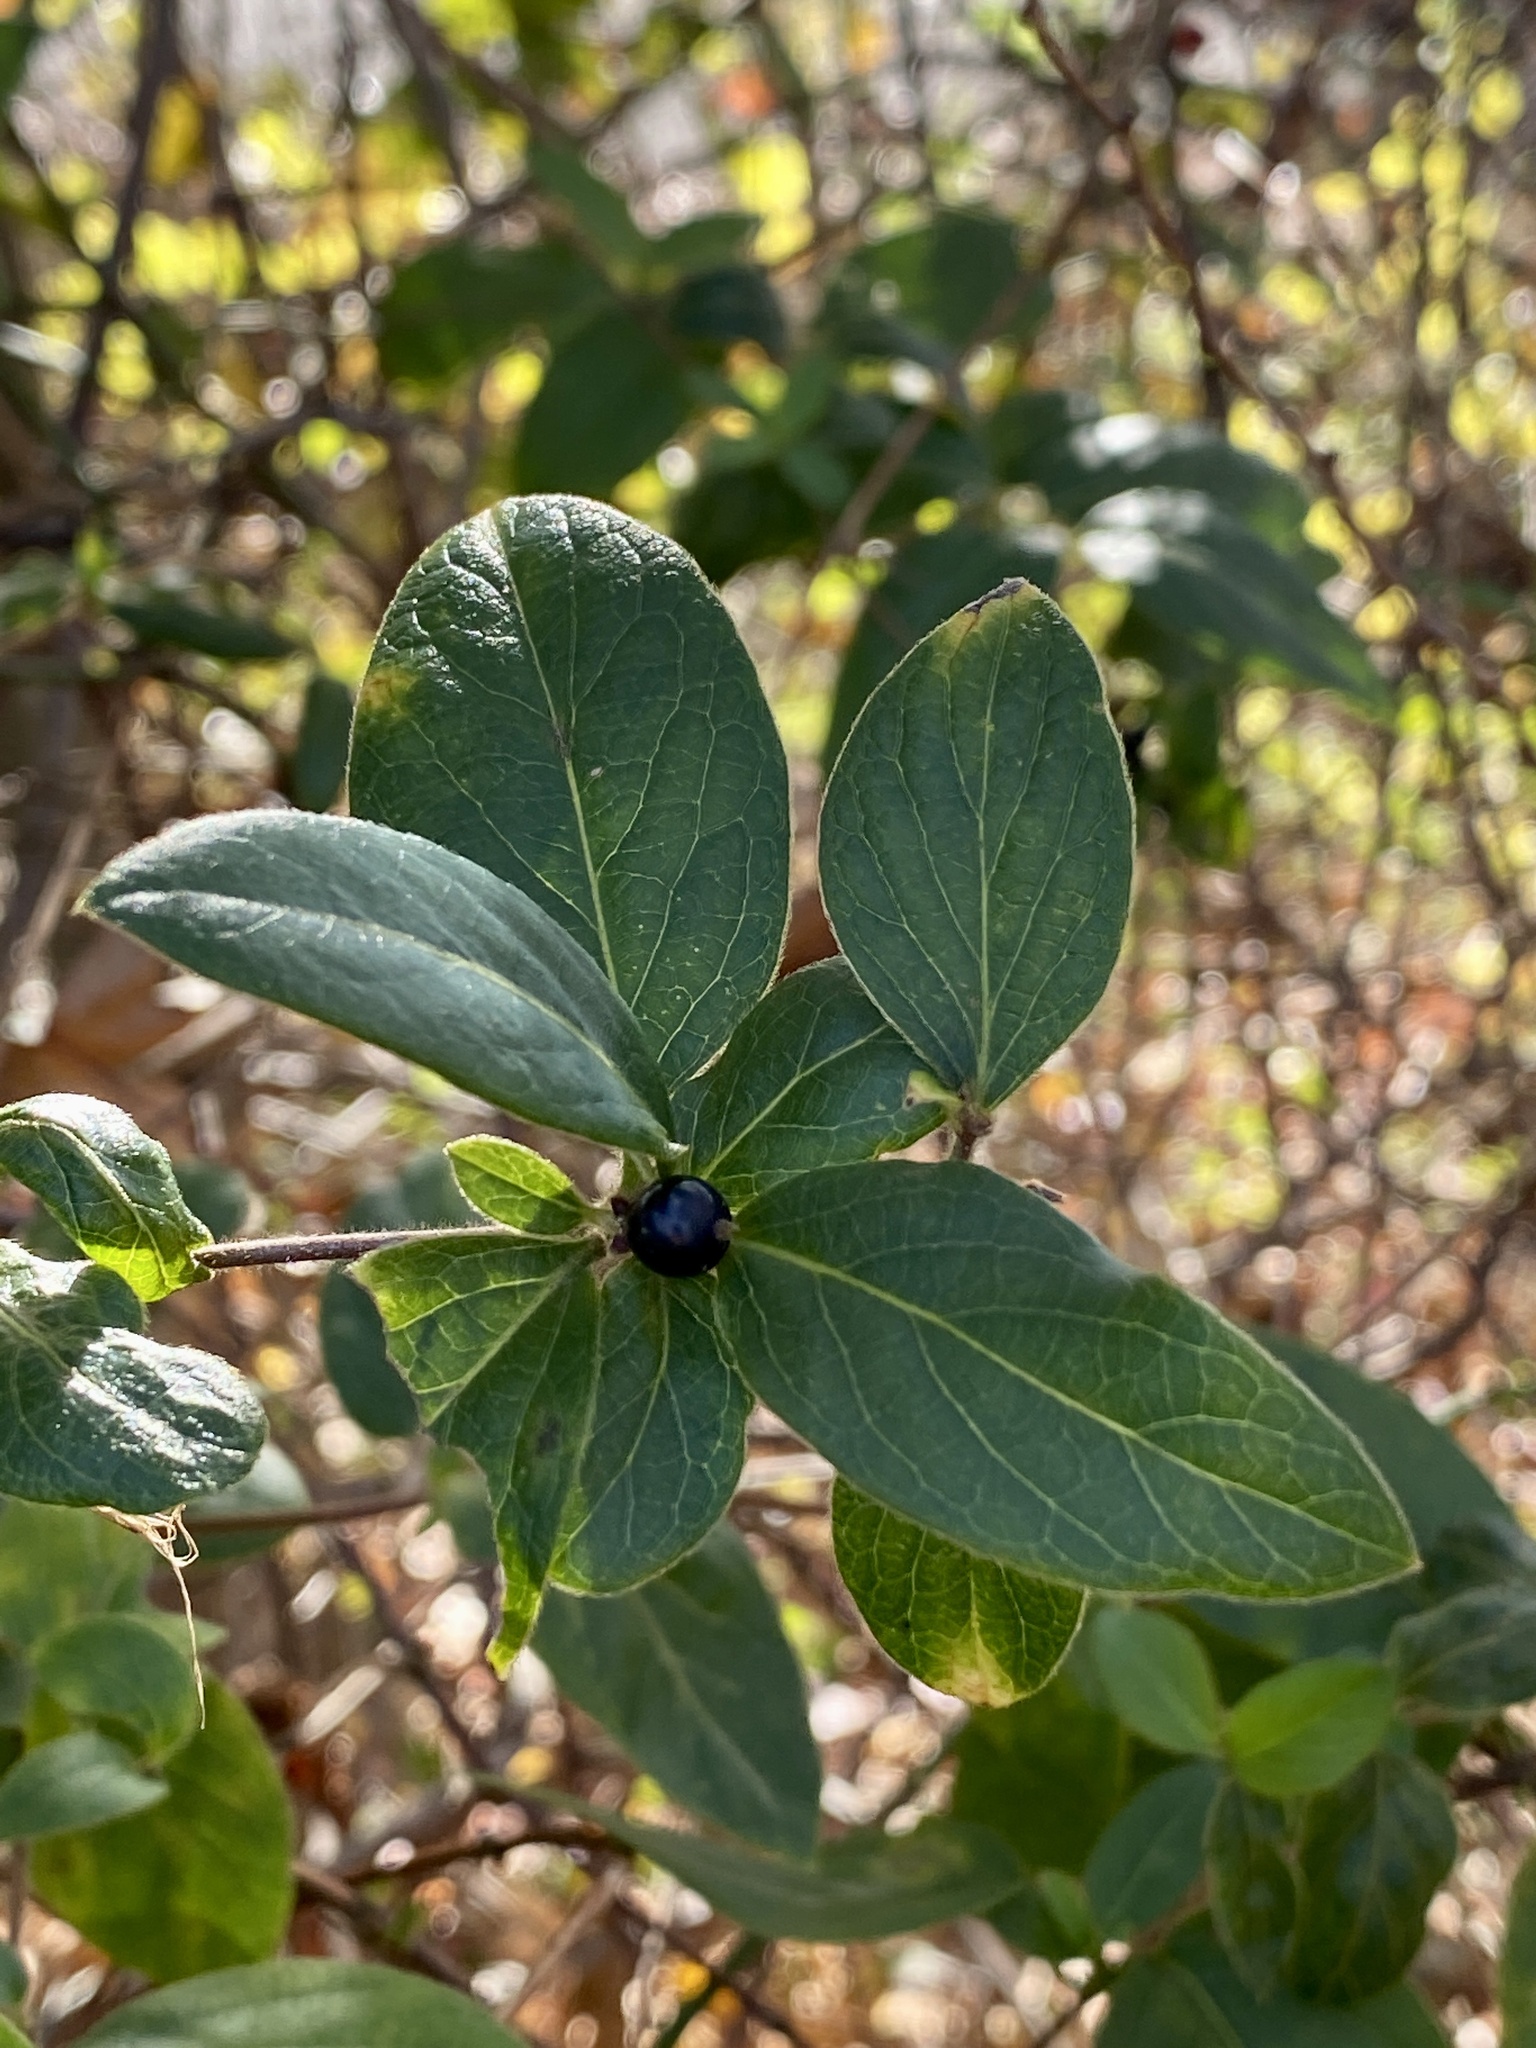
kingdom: Plantae
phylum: Tracheophyta
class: Magnoliopsida
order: Dipsacales
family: Caprifoliaceae
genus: Lonicera
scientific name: Lonicera japonica
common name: Japanese honeysuckle
